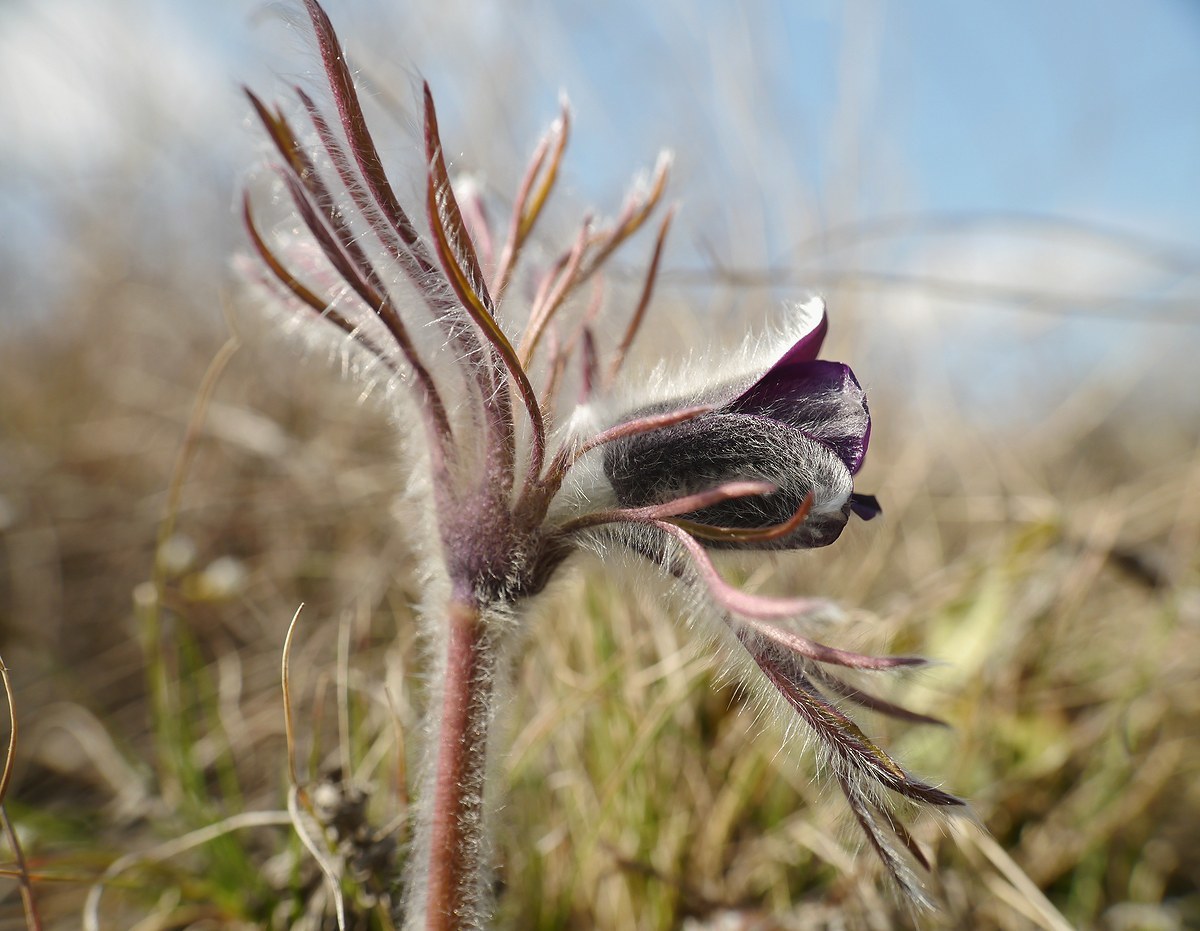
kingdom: Plantae
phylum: Tracheophyta
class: Magnoliopsida
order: Ranunculales
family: Ranunculaceae
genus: Pulsatilla
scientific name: Pulsatilla pratensis
